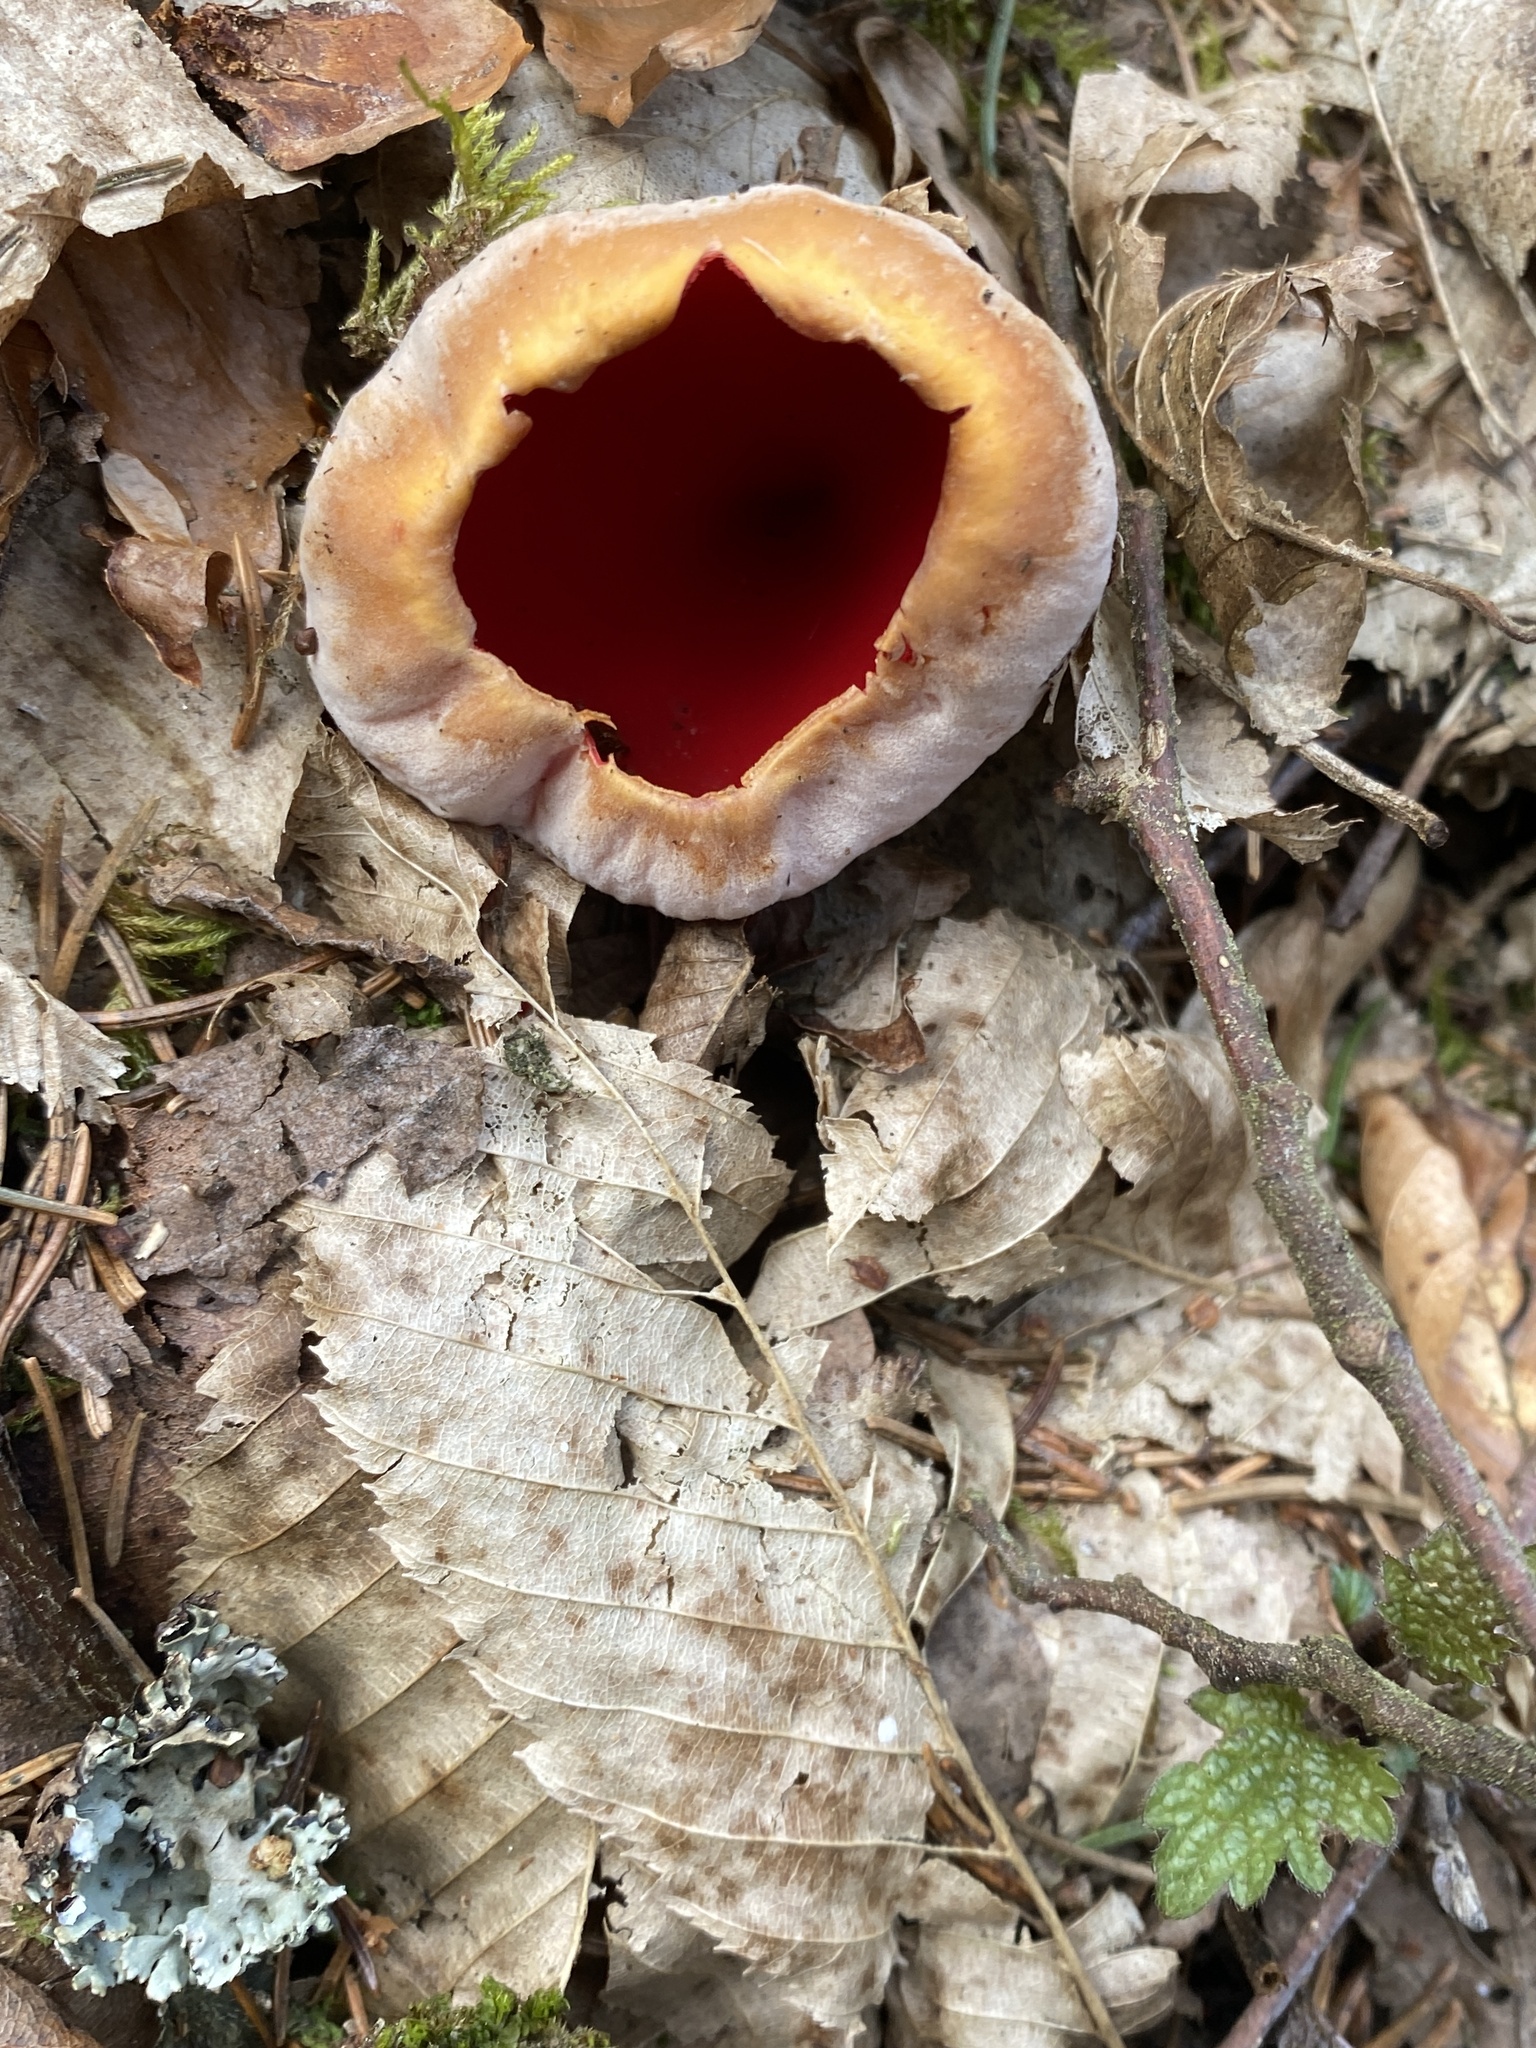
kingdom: Fungi
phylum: Ascomycota
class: Pezizomycetes
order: Pezizales
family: Sarcoscyphaceae
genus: Sarcoscypha
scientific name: Sarcoscypha
